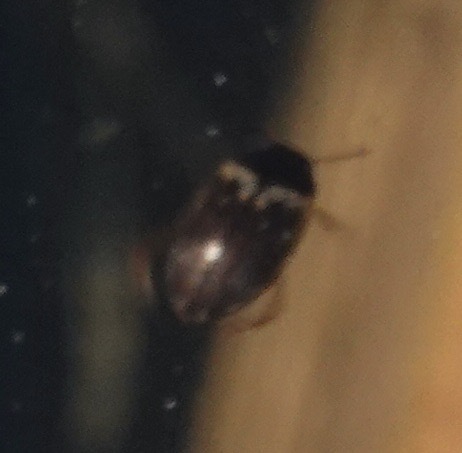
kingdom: Animalia
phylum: Arthropoda
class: Insecta
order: Coleoptera
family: Dytiscidae
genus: Hydroporus
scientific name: Hydroporus tessellatus
